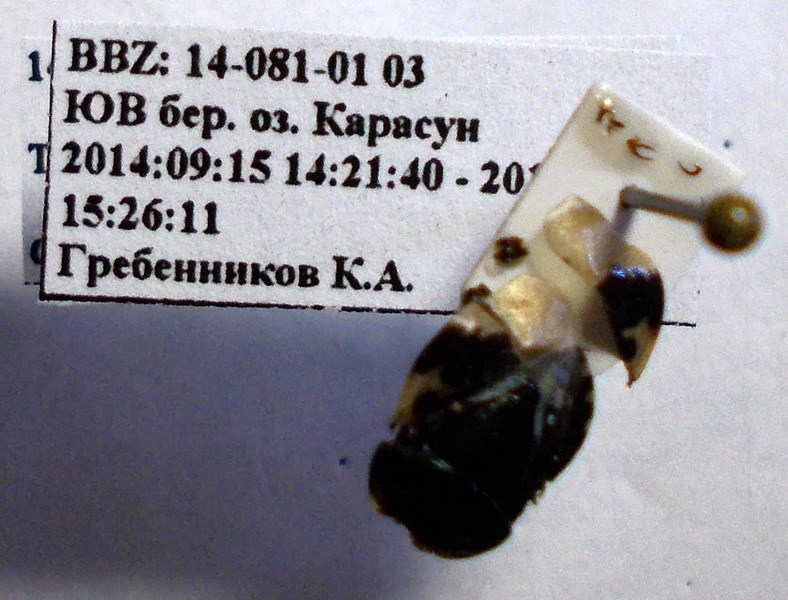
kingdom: Animalia
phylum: Arthropoda
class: Insecta
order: Hemiptera
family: Cydnidae
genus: Tritomegas
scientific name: Tritomegas bicolor
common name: Pied shieldbug
